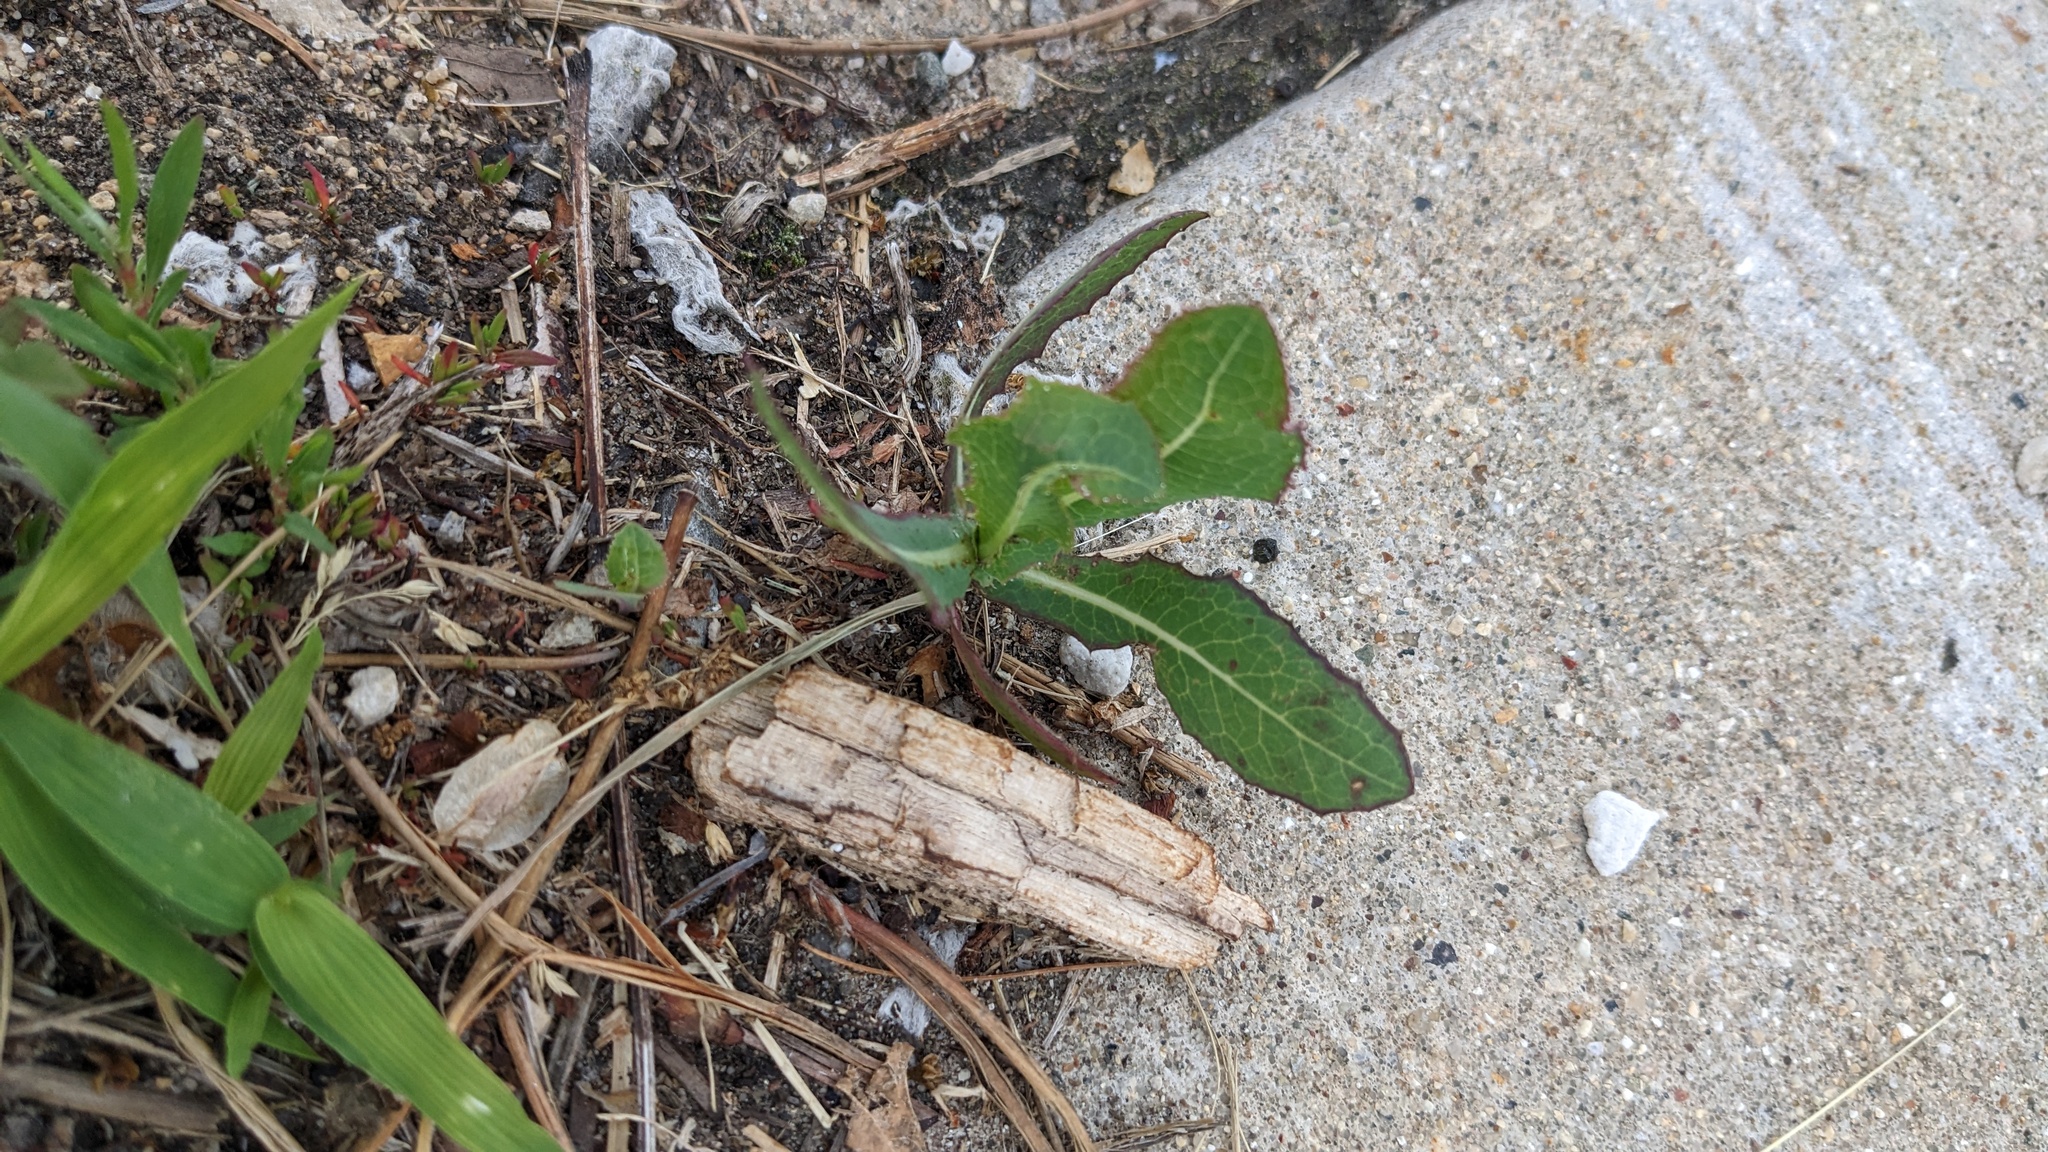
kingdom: Plantae
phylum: Tracheophyta
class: Magnoliopsida
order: Asterales
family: Asteraceae
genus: Lactuca
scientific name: Lactuca serriola
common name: Prickly lettuce
